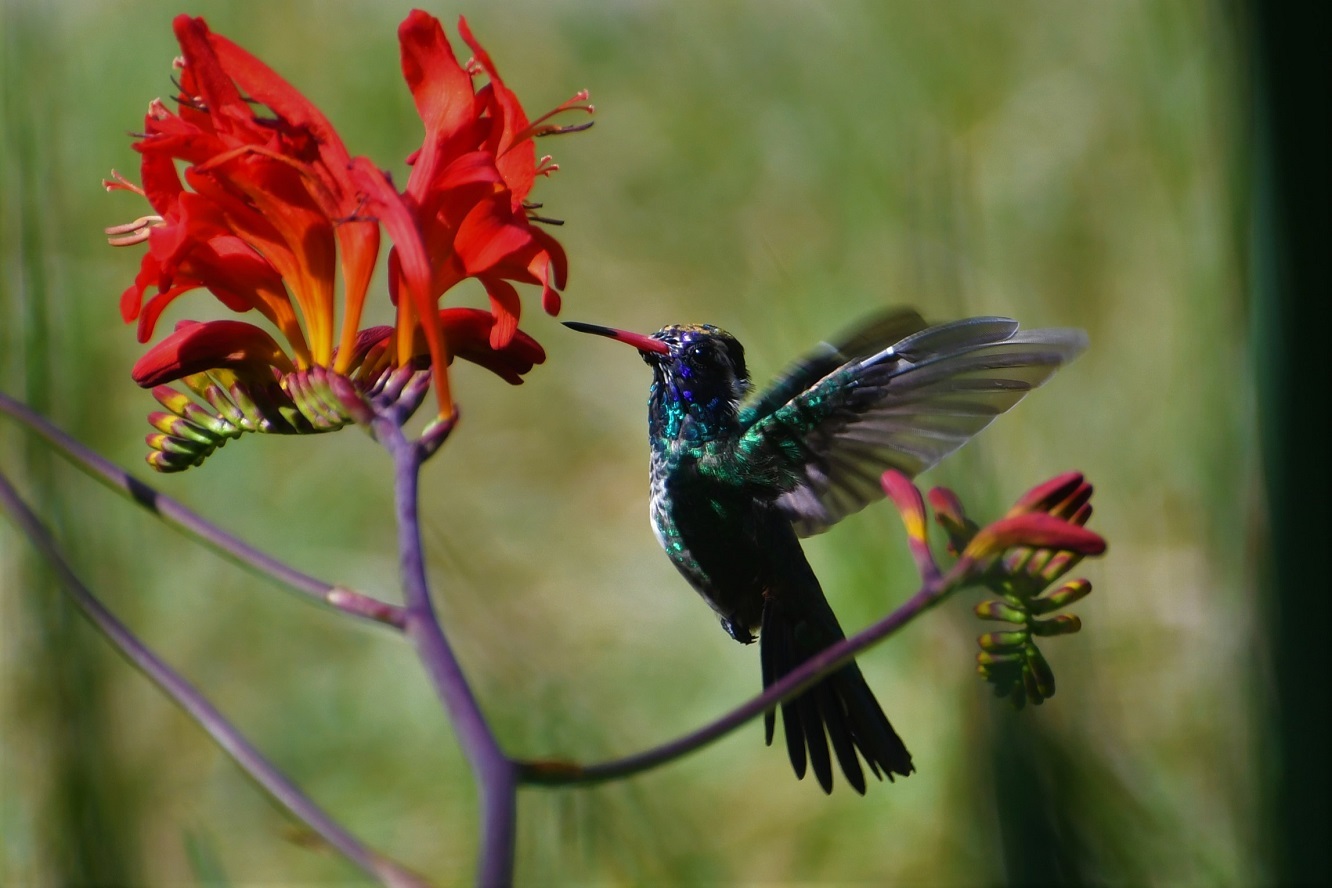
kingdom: Animalia
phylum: Chordata
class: Aves
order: Apodiformes
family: Trochilidae
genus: Basilinna
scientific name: Basilinna leucotis
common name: White-eared hummingbird
